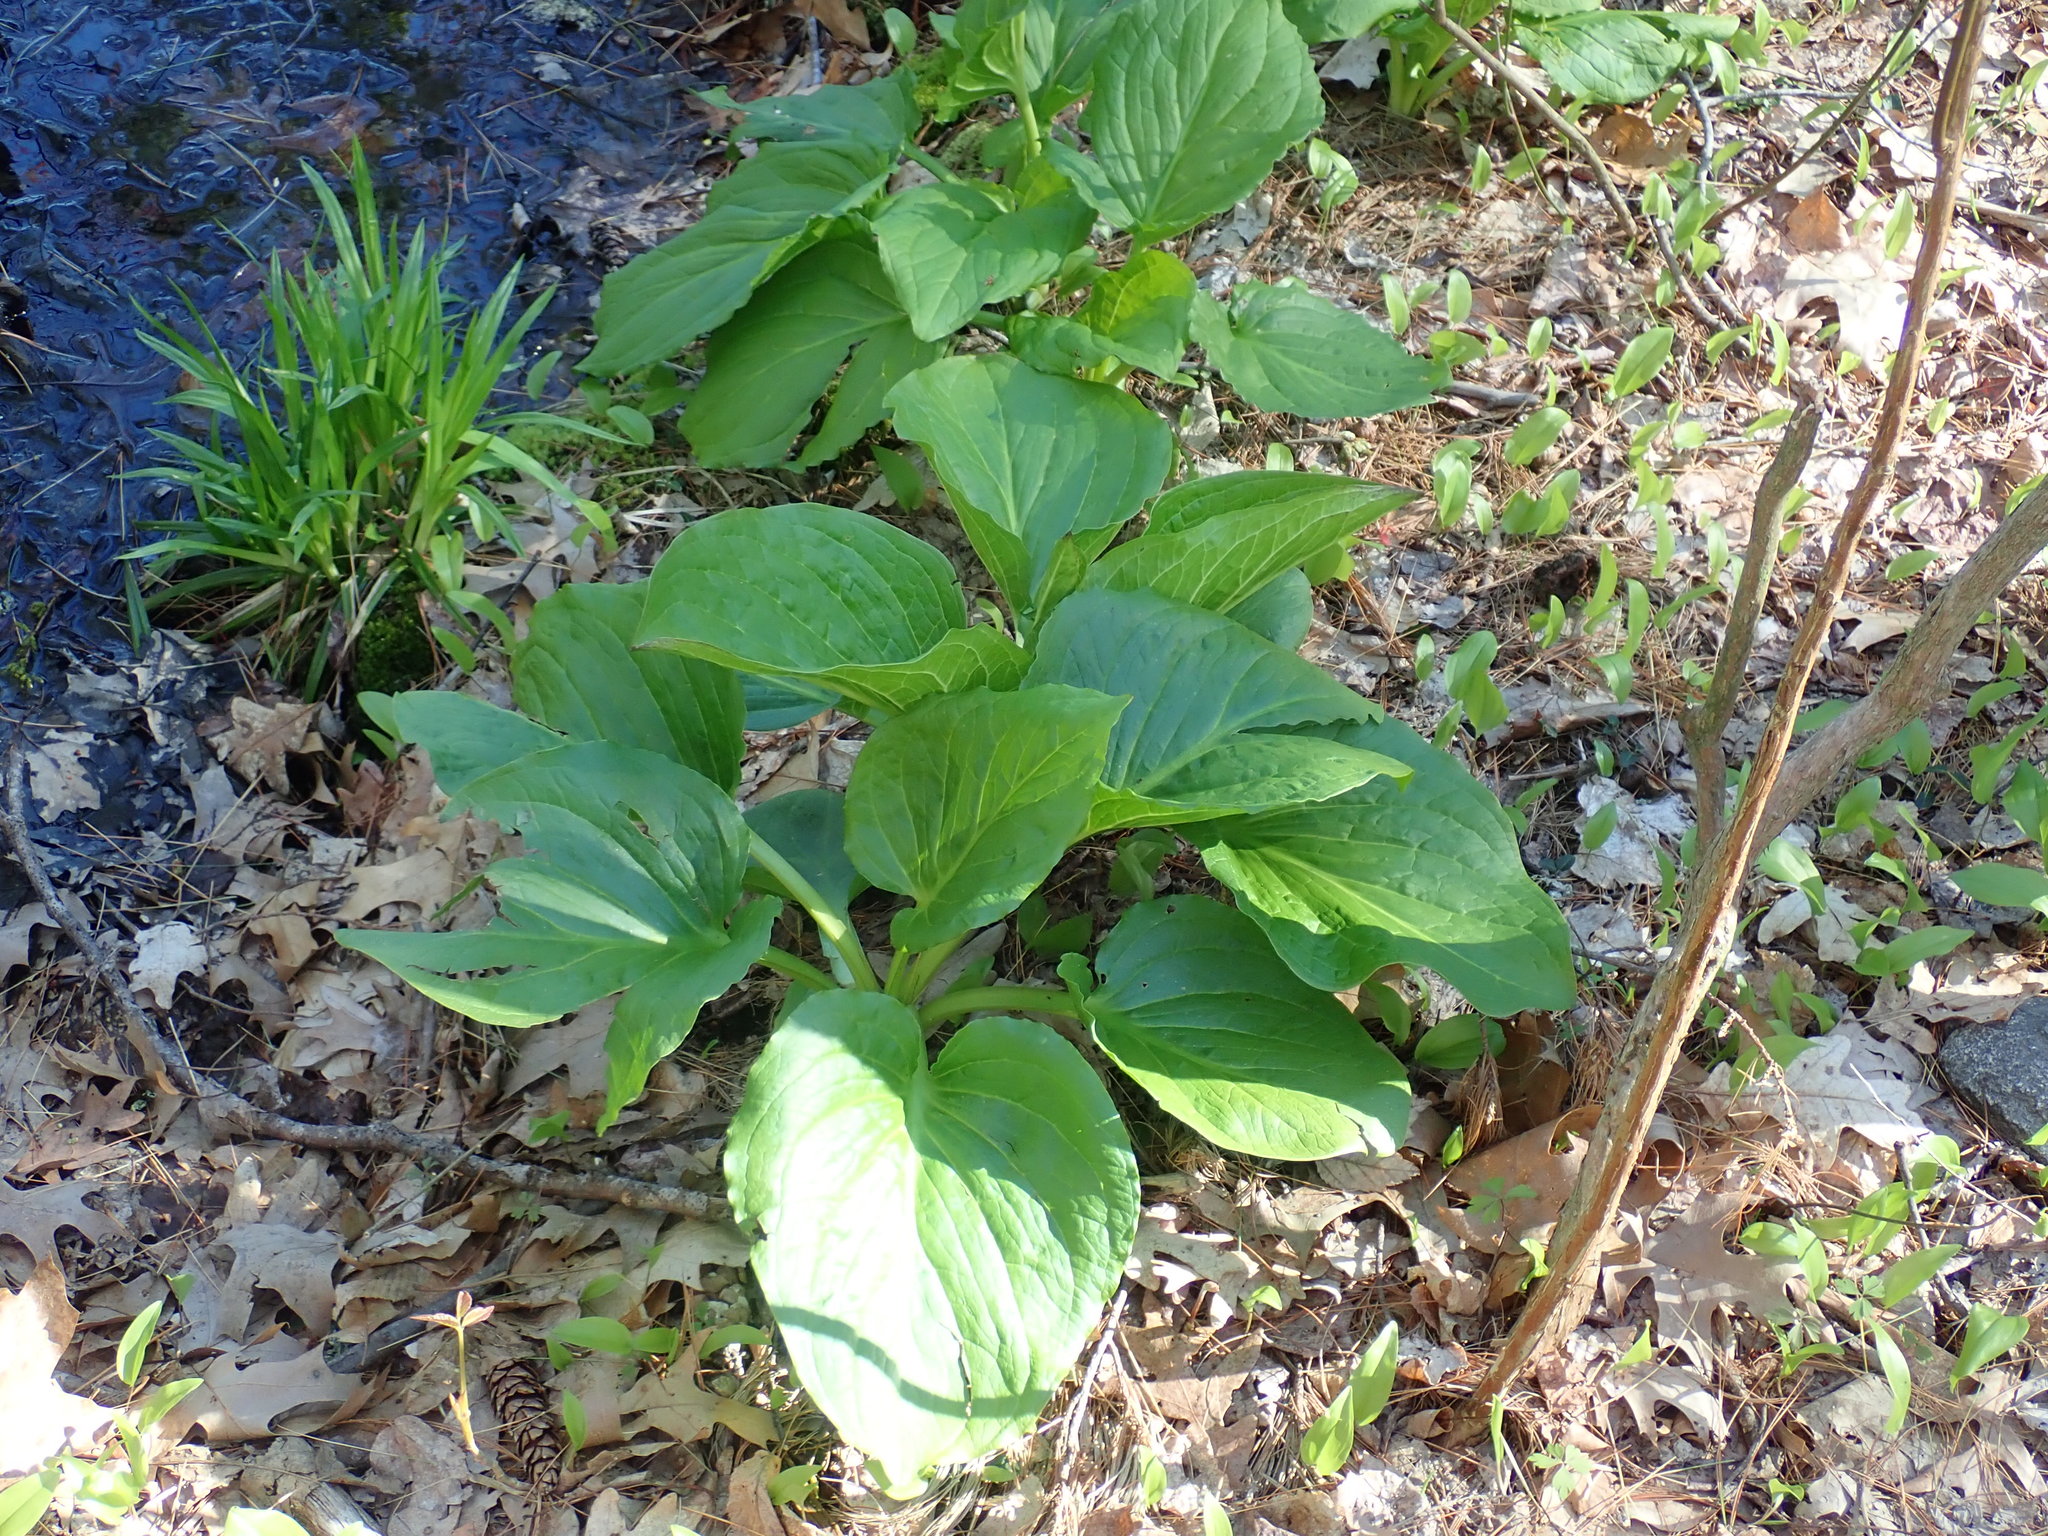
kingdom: Plantae
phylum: Tracheophyta
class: Liliopsida
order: Alismatales
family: Araceae
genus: Symplocarpus
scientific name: Symplocarpus foetidus
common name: Eastern skunk cabbage
